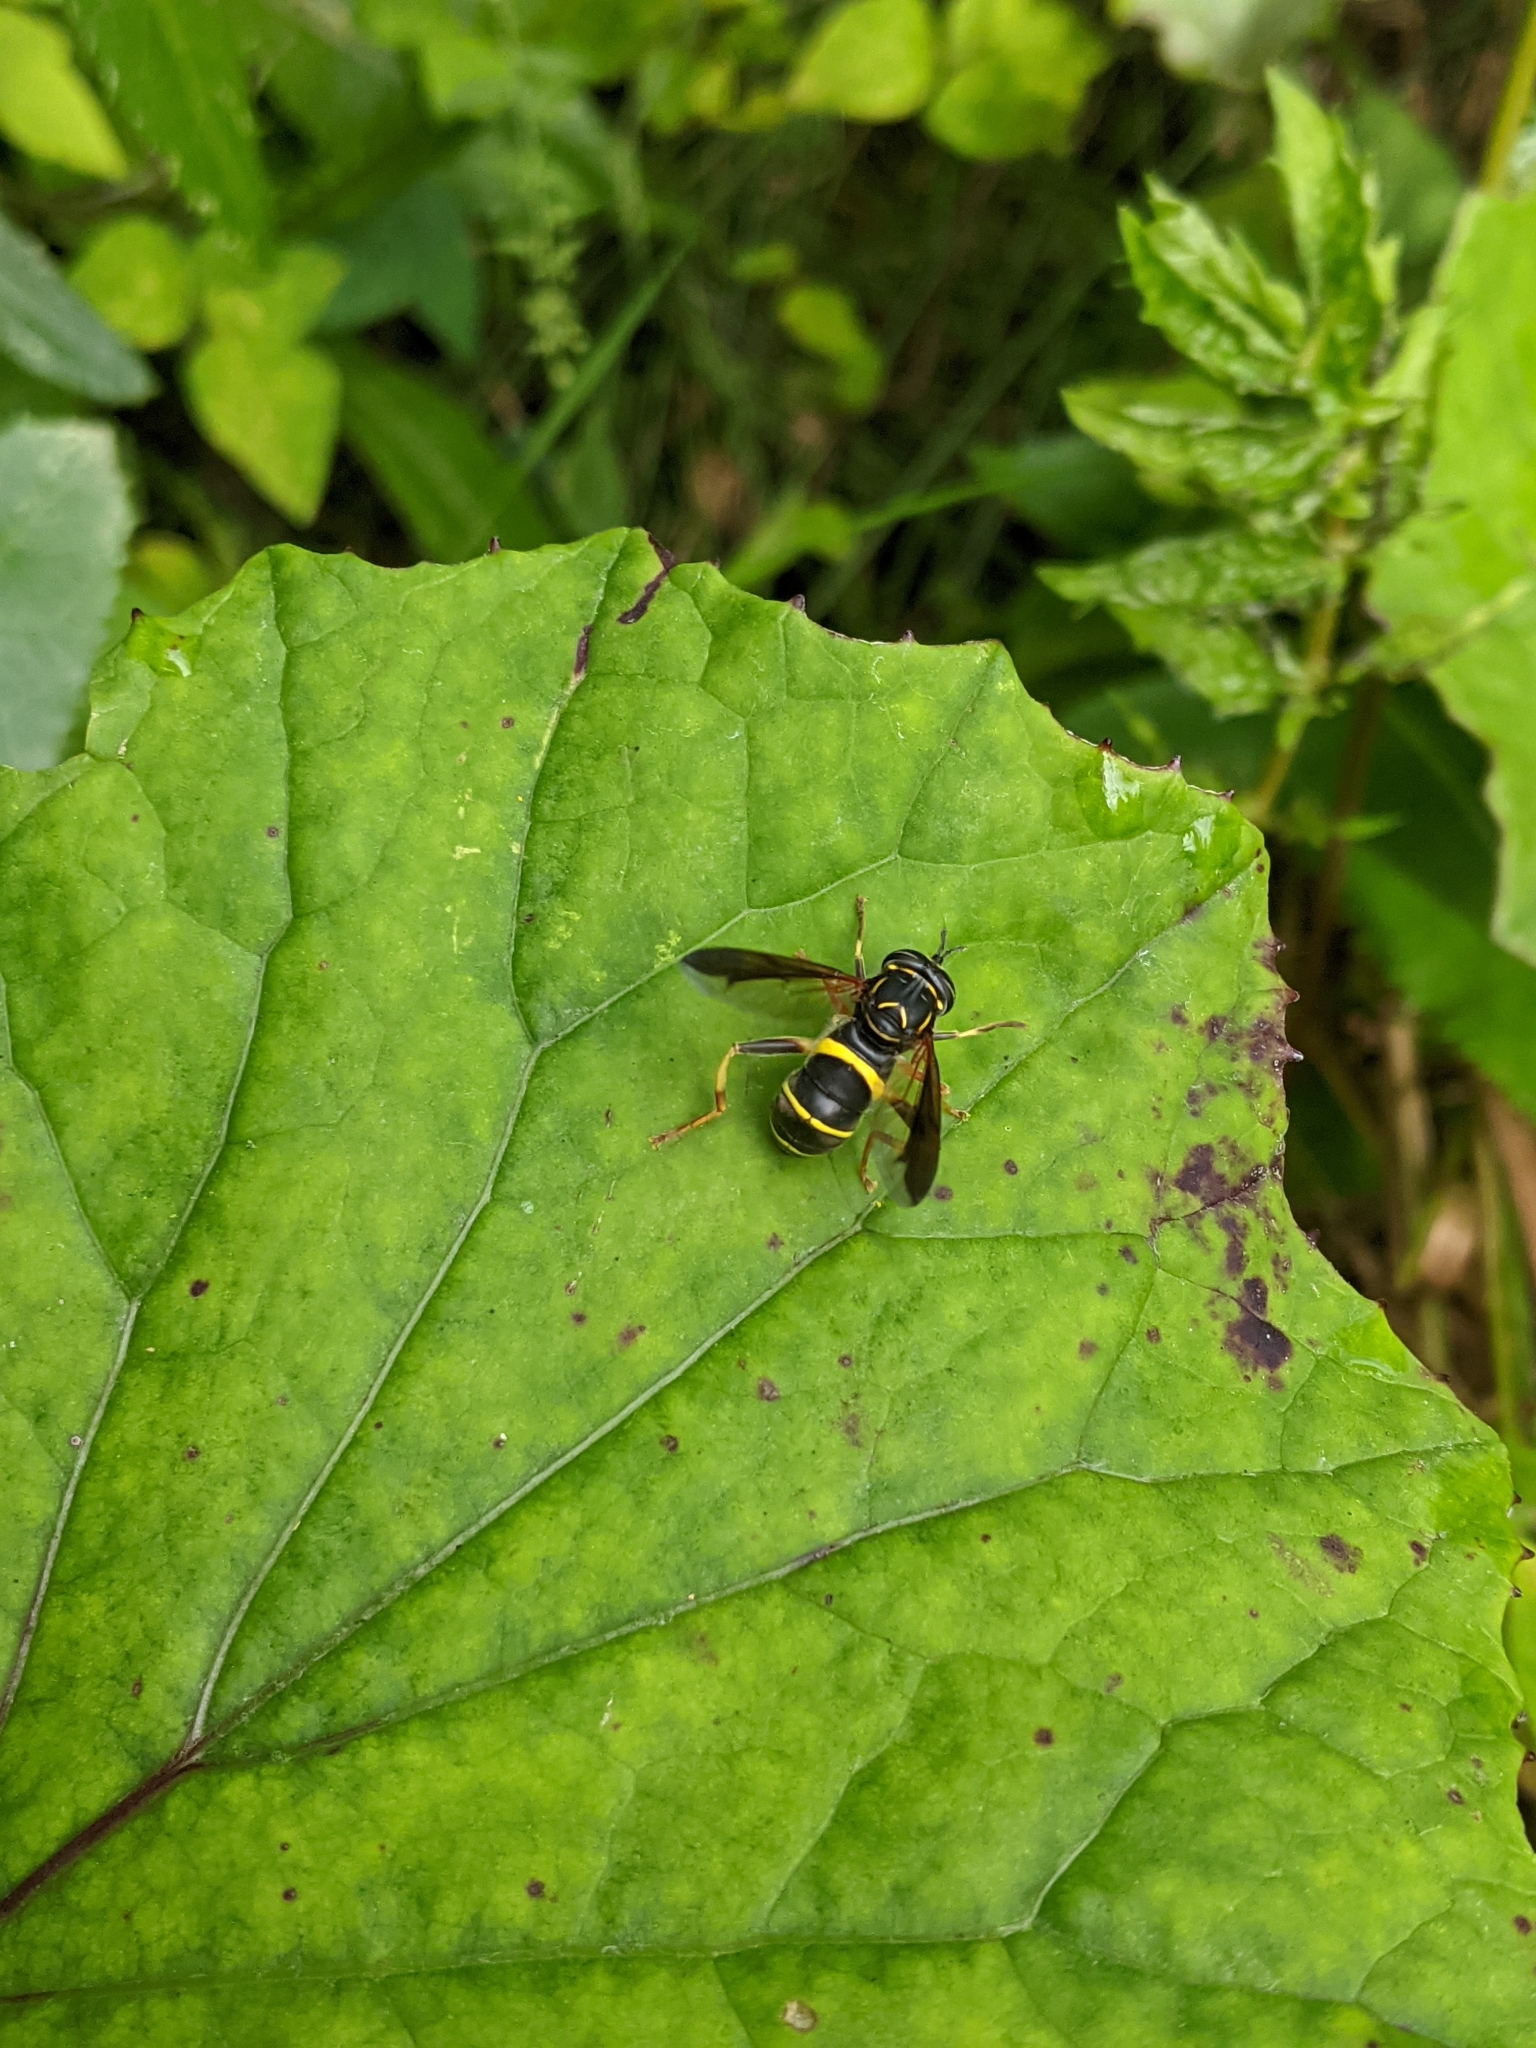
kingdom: Animalia
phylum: Arthropoda
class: Insecta
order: Diptera
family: Syrphidae
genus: Spilomyia
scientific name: Spilomyia sayi
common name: Four-lined hornet fly
